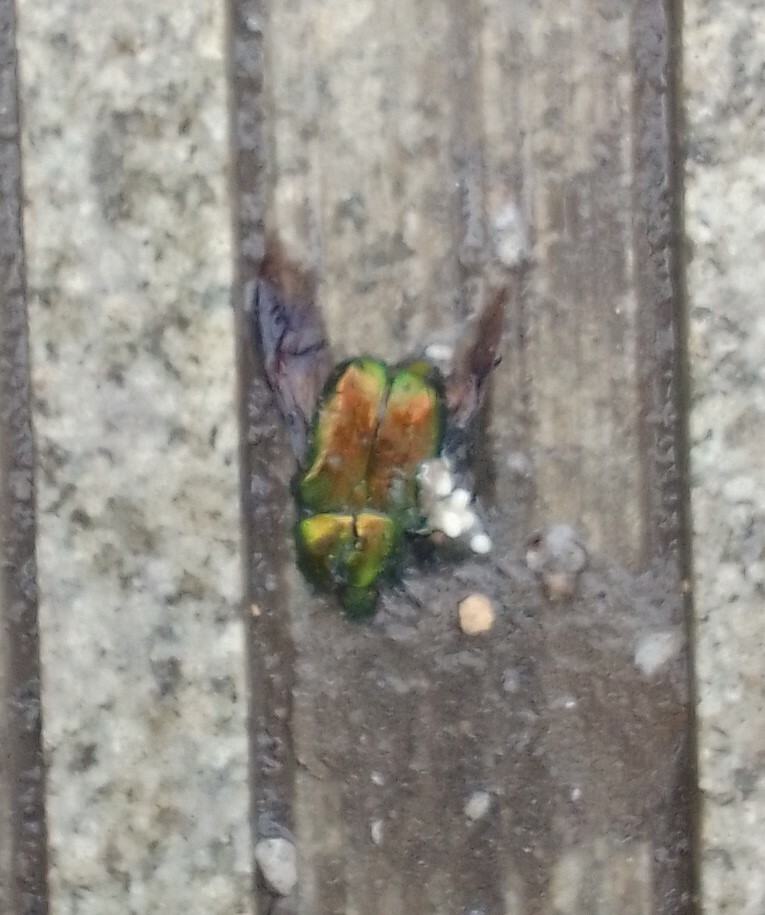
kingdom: Animalia
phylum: Arthropoda
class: Insecta
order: Coleoptera
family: Scarabaeidae
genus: Cetonia
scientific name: Cetonia aurata
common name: Rose chafer
